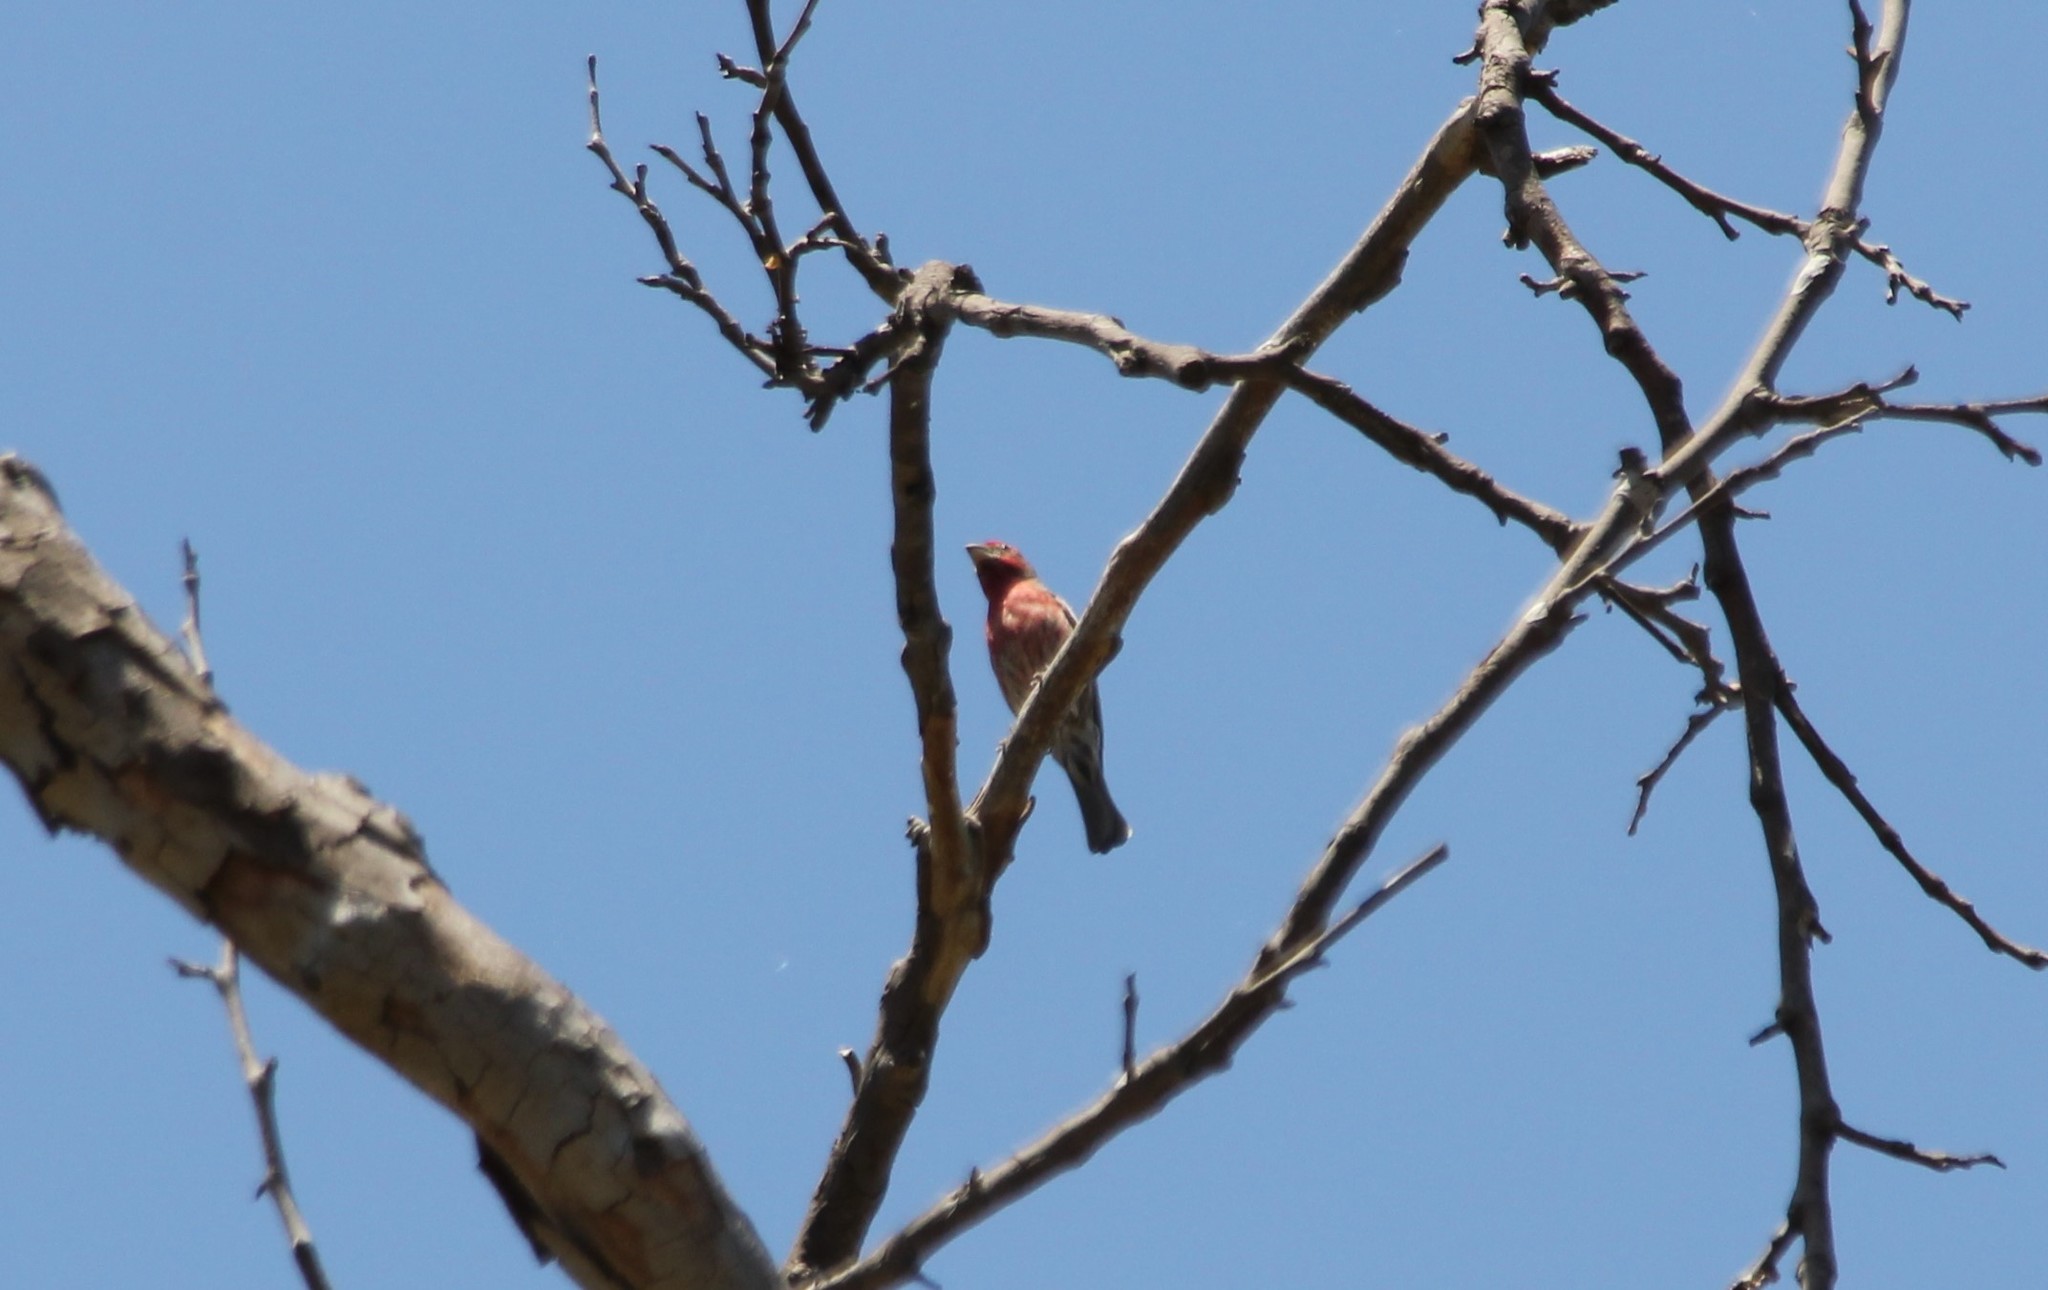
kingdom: Animalia
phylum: Chordata
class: Aves
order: Passeriformes
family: Fringillidae
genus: Haemorhous
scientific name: Haemorhous mexicanus
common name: House finch
